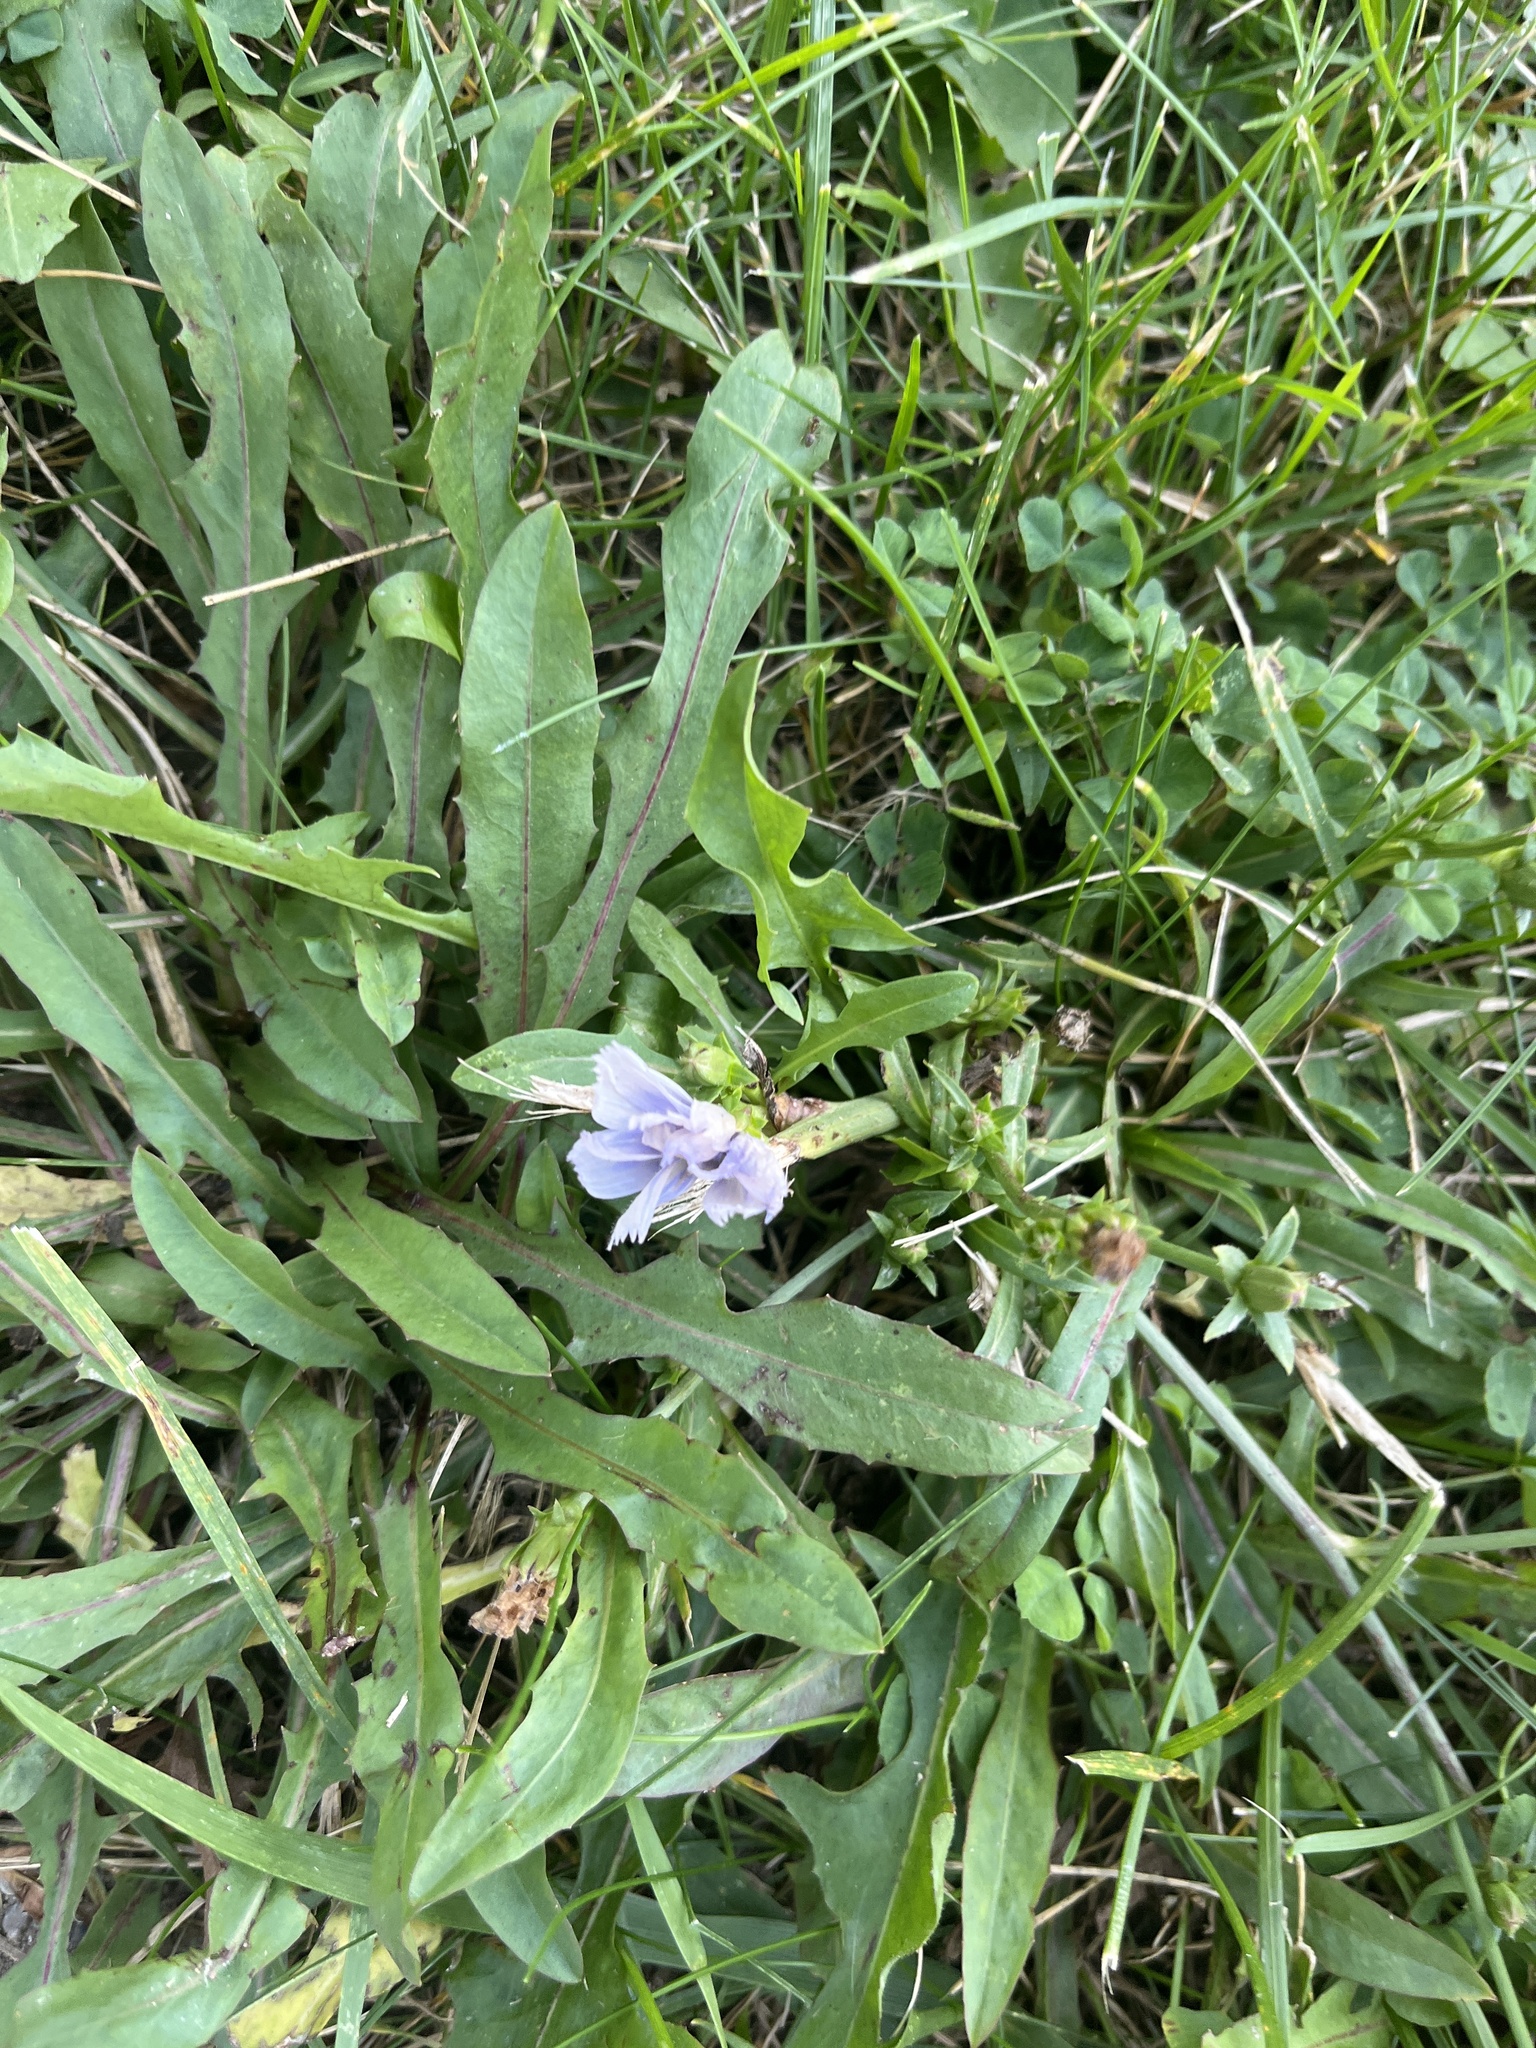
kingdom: Plantae
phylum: Tracheophyta
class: Magnoliopsida
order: Asterales
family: Asteraceae
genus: Cichorium
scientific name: Cichorium intybus
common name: Chicory
